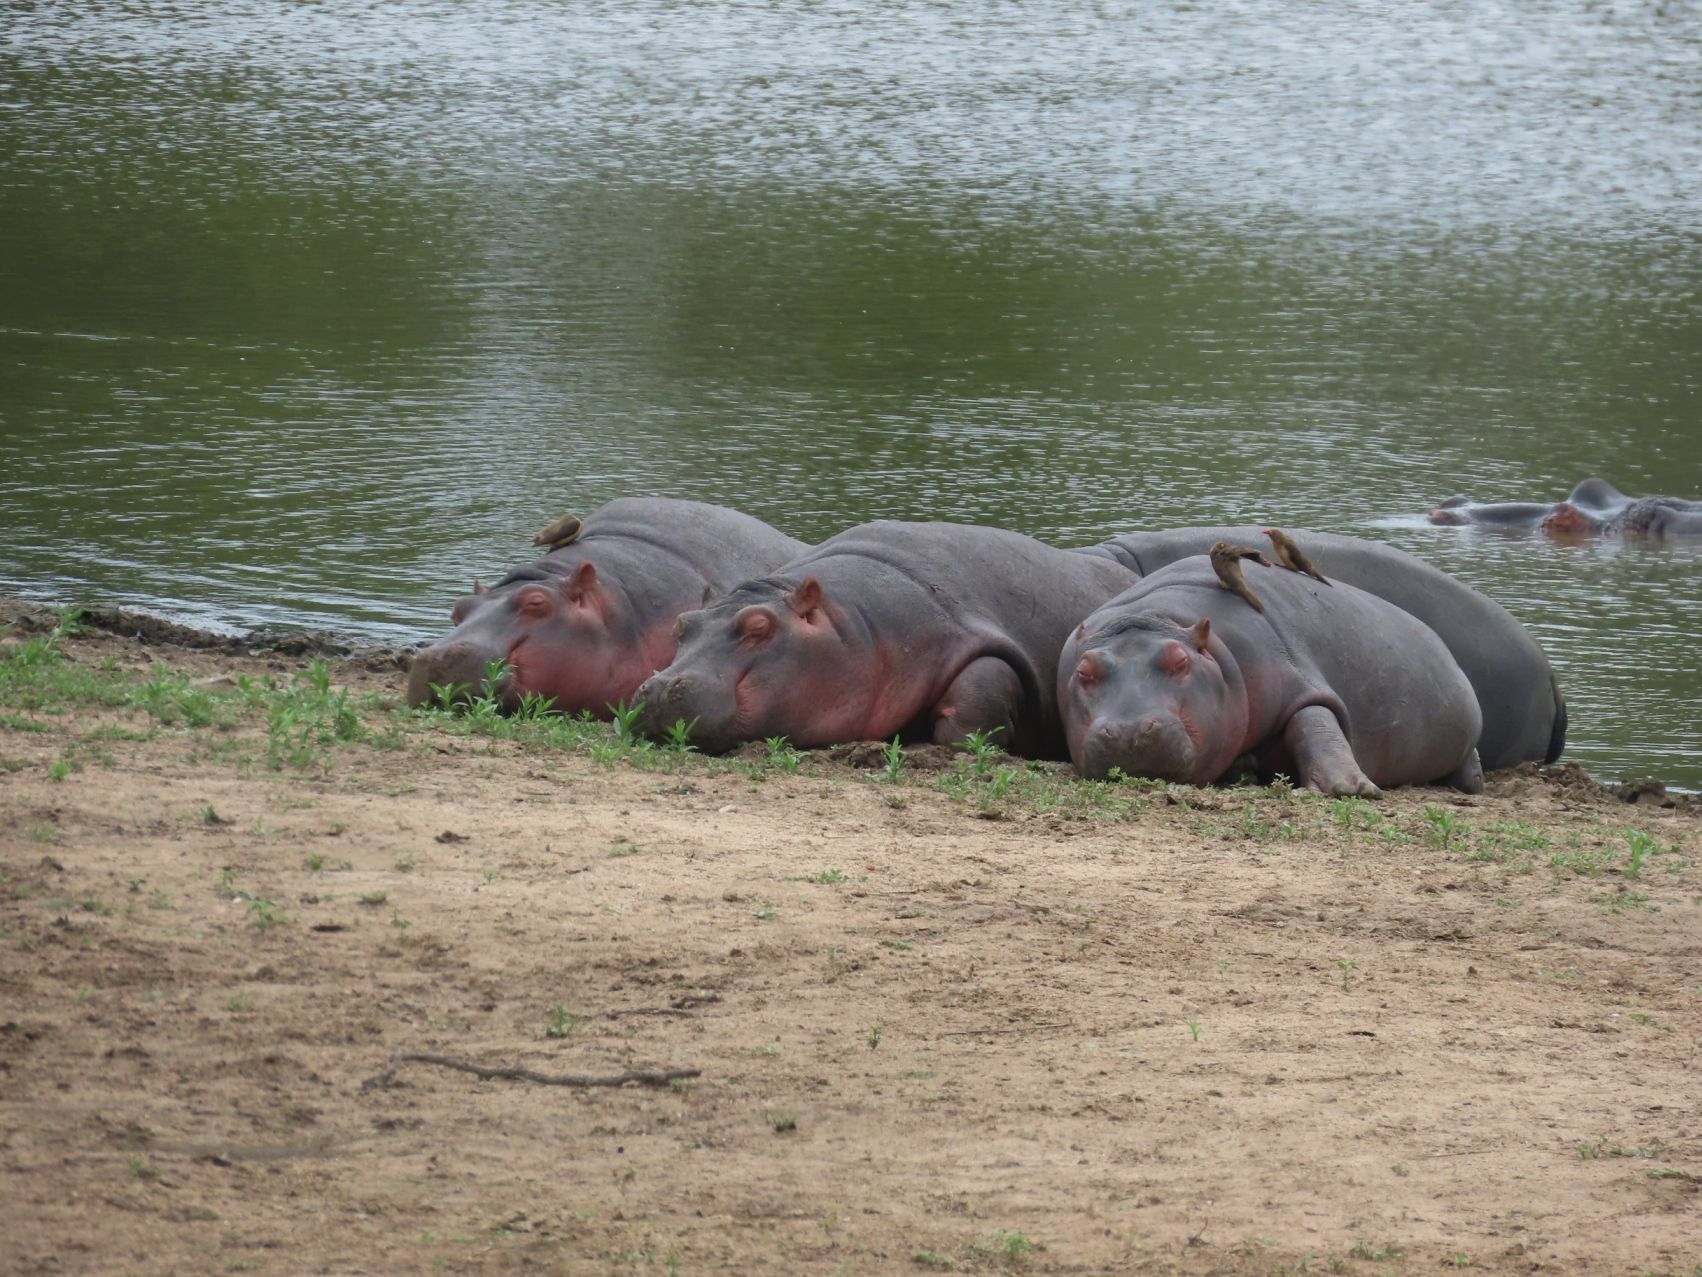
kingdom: Animalia
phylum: Chordata
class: Mammalia
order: Artiodactyla
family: Hippopotamidae
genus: Hippopotamus
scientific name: Hippopotamus amphibius
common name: Common hippopotamus
